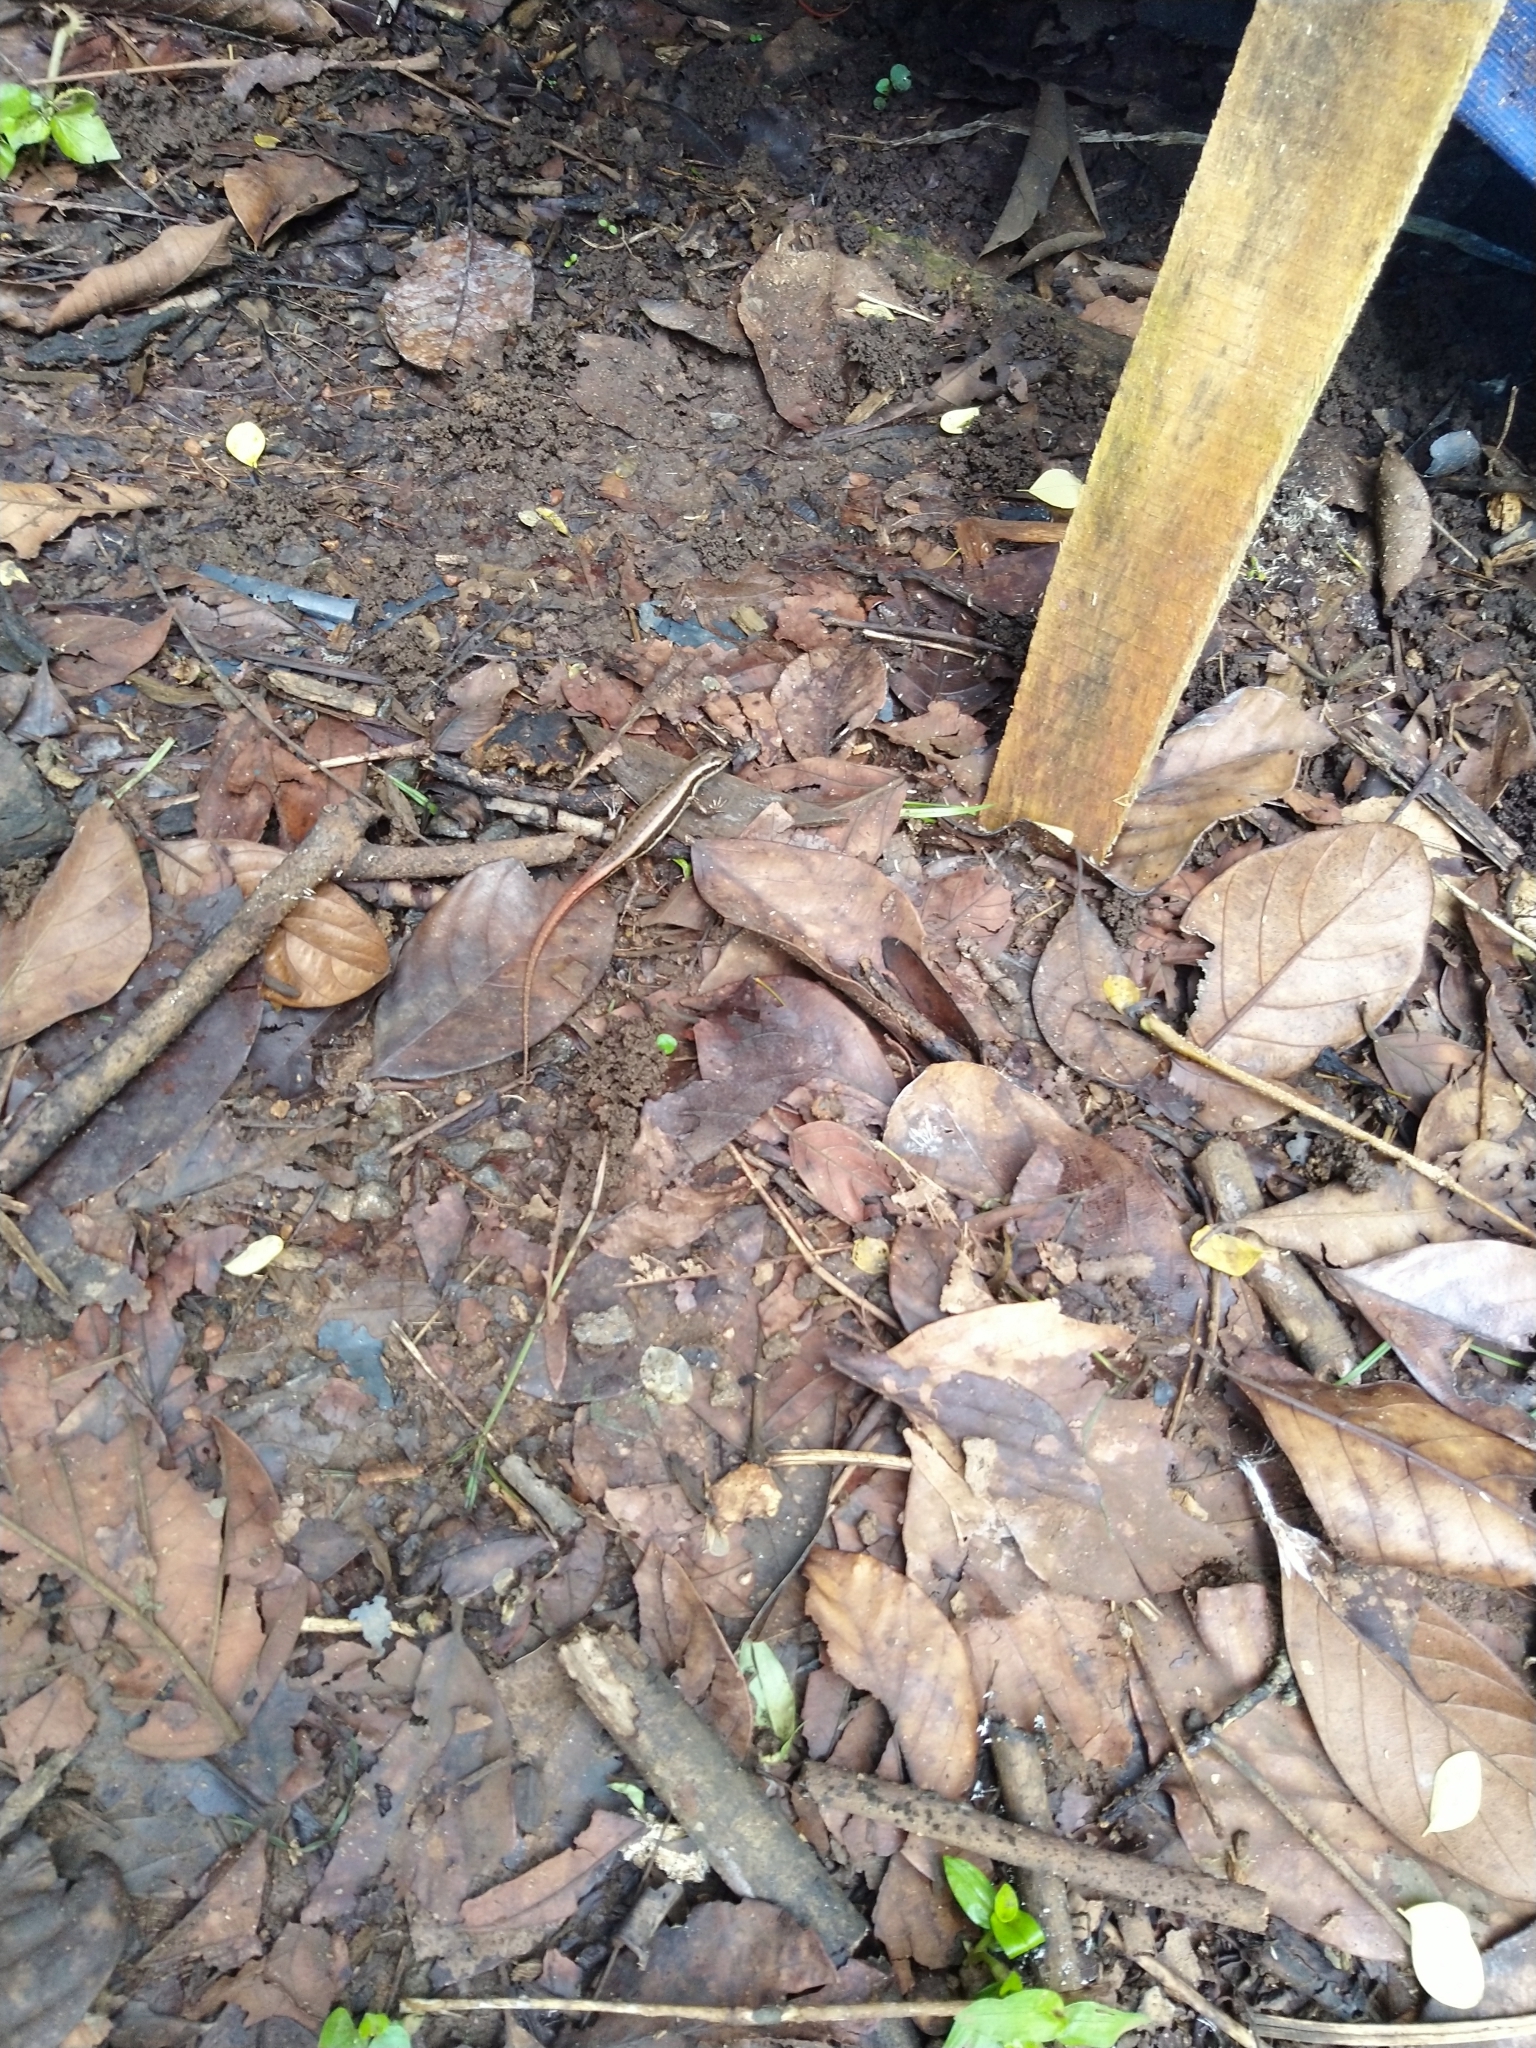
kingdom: Animalia
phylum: Chordata
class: Squamata
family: Scincidae
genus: Sphenomorphus
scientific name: Sphenomorphus dussumieri
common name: Dussumier's forest skink
